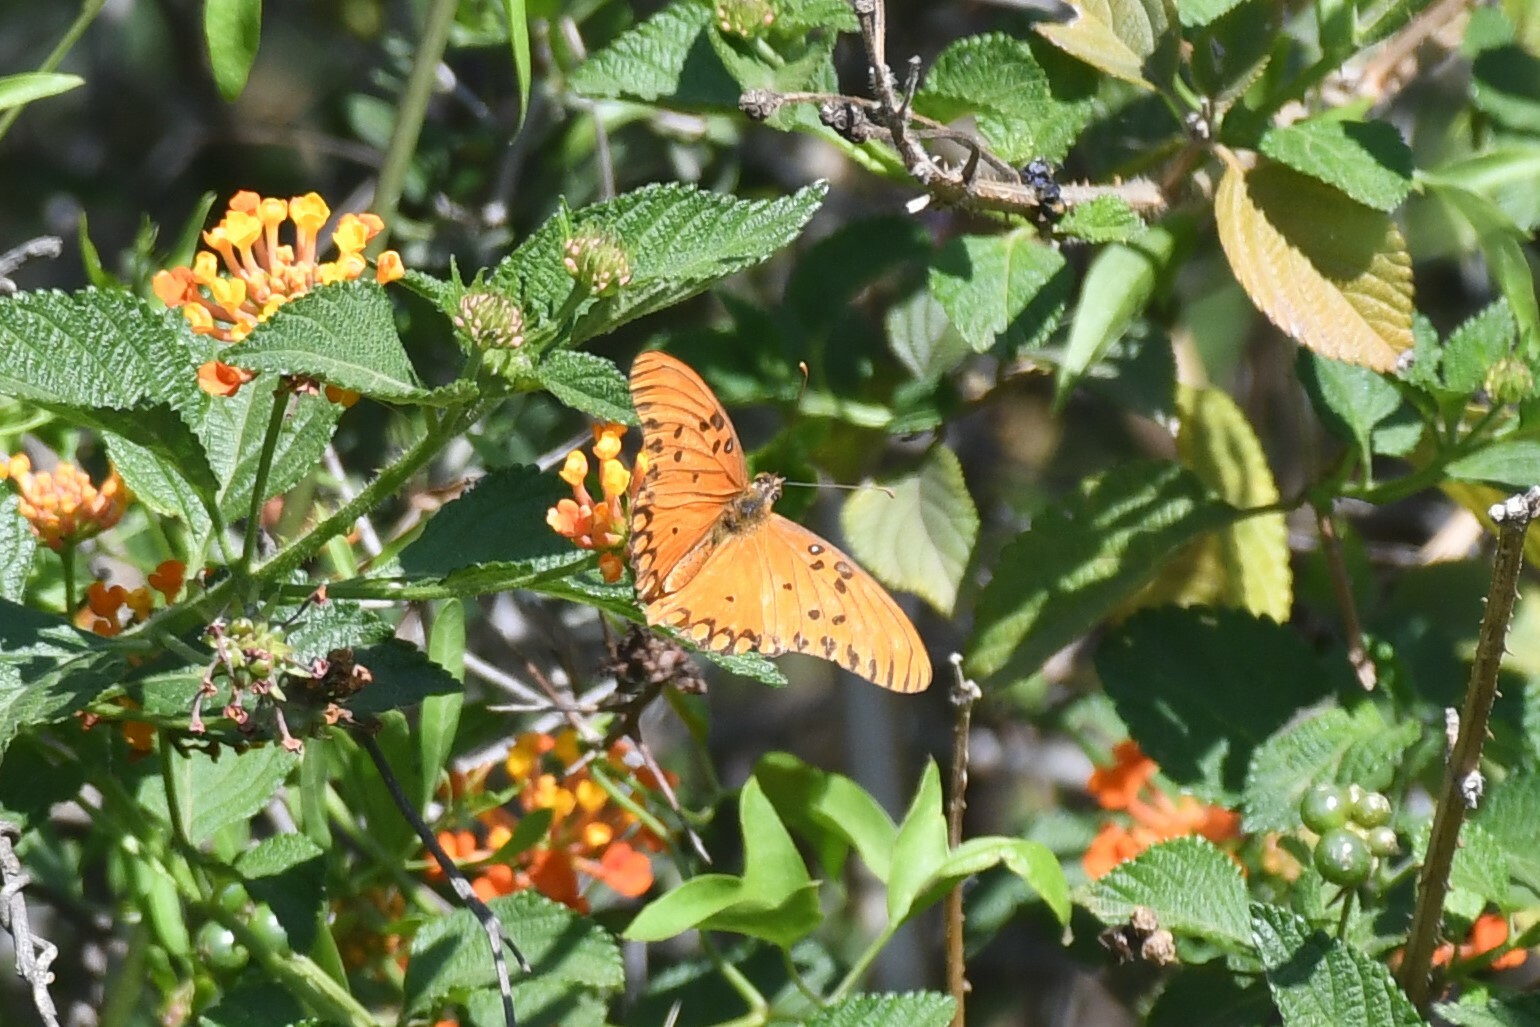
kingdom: Animalia
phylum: Arthropoda
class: Insecta
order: Lepidoptera
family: Nymphalidae
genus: Dione
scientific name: Dione vanillae
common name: Gulf fritillary
